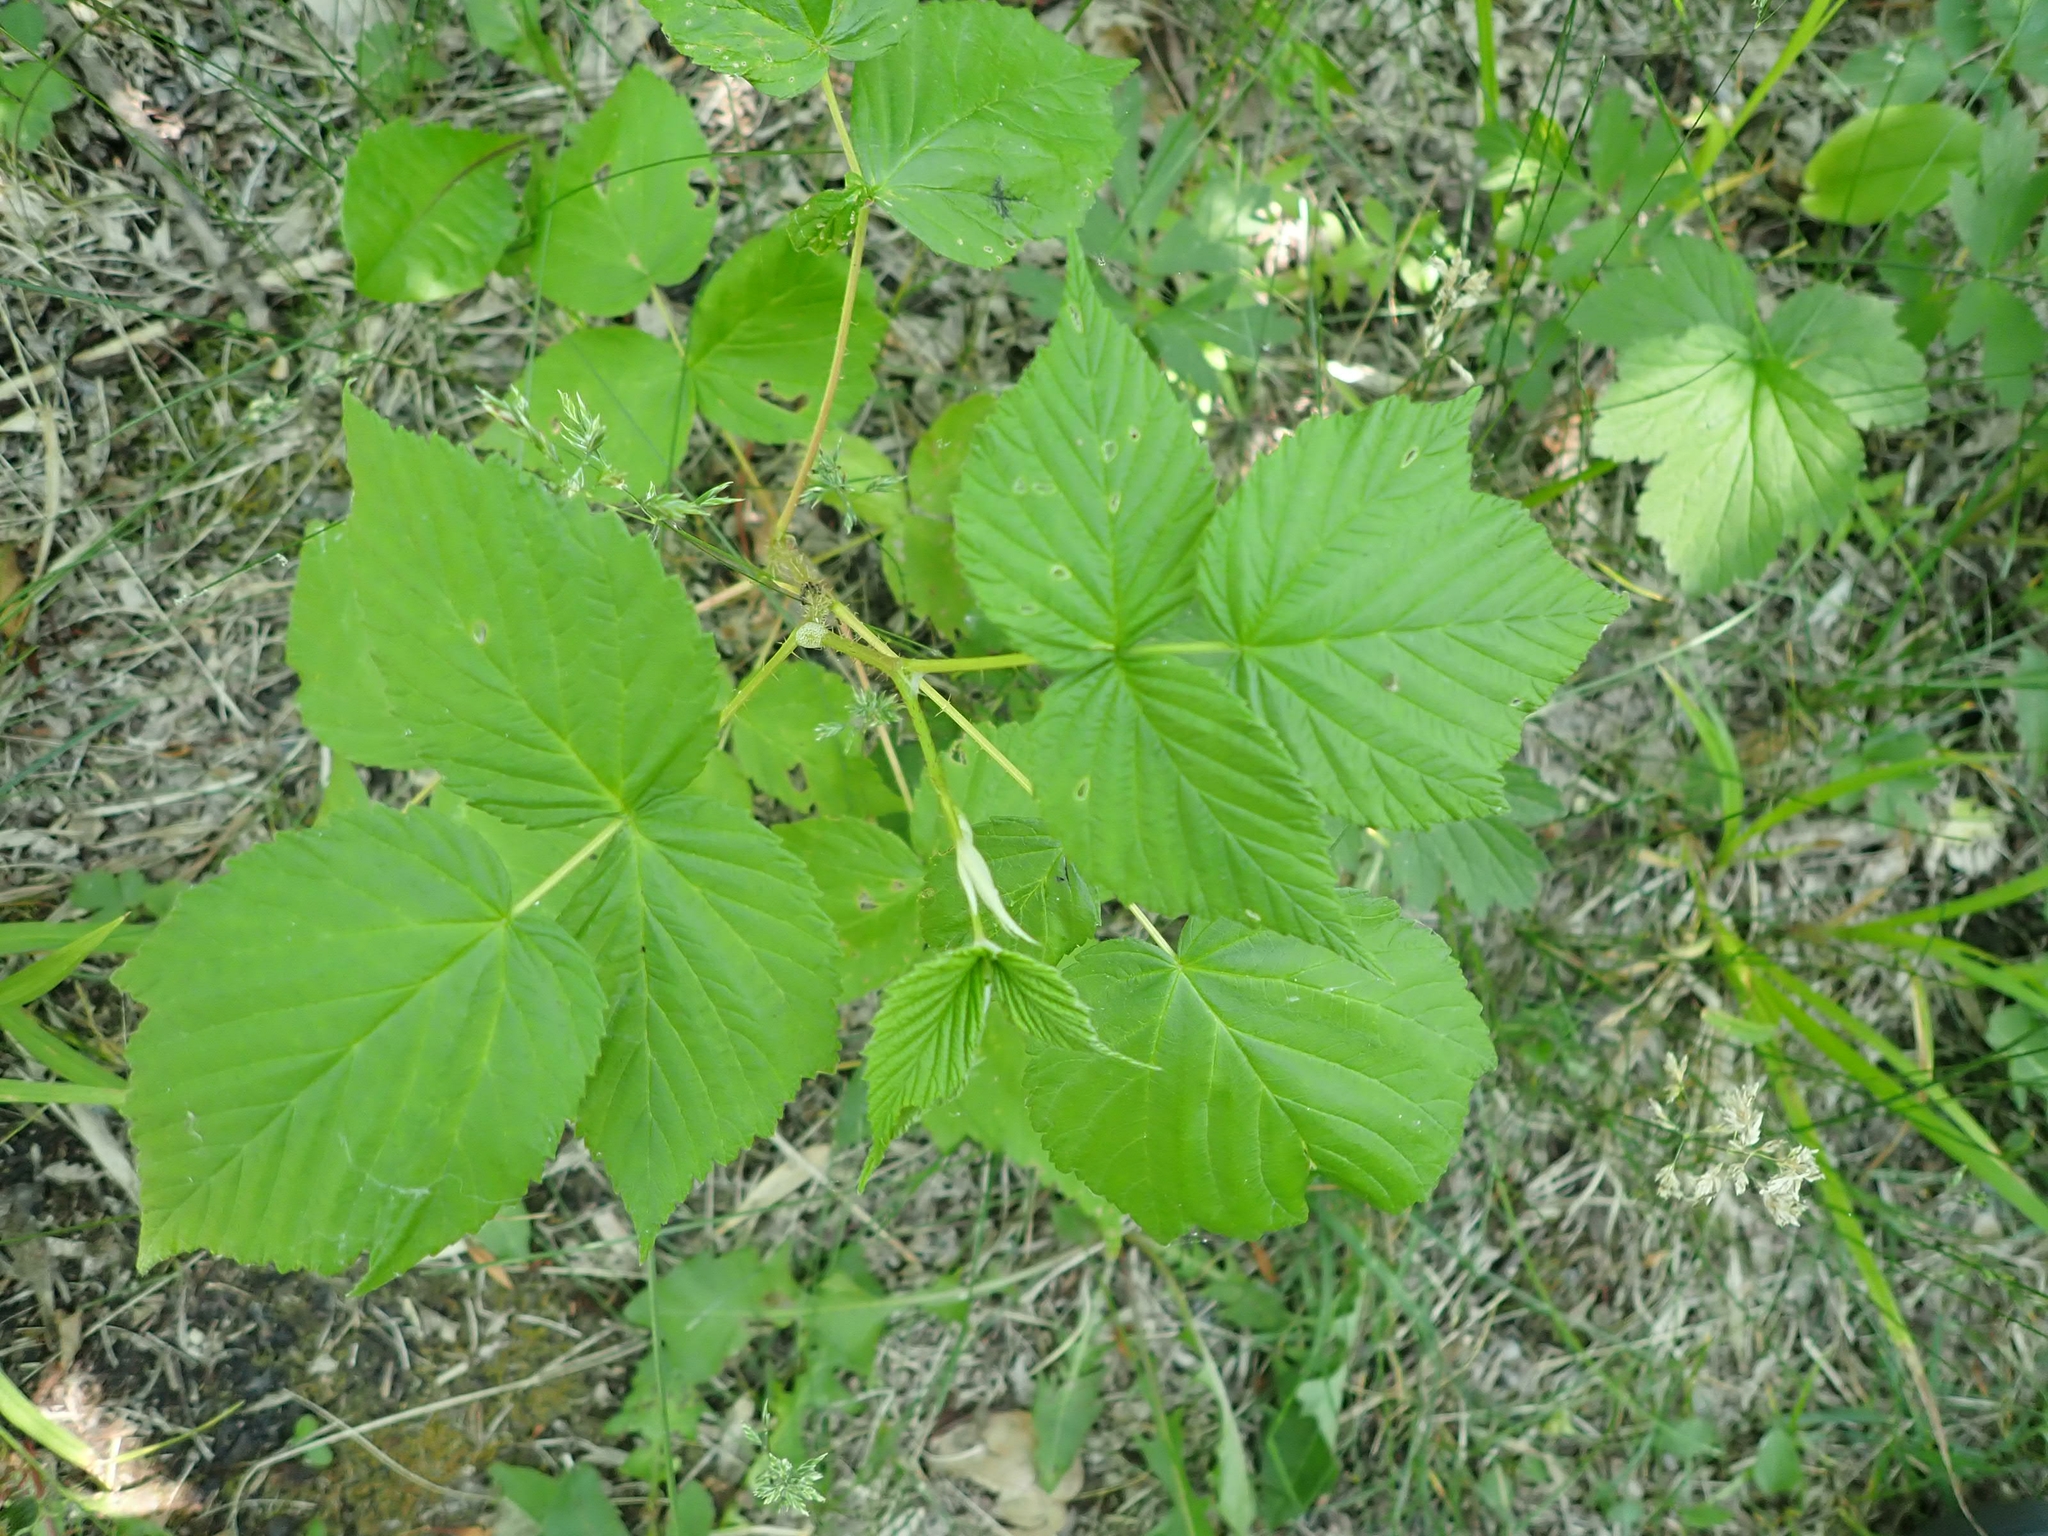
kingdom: Plantae
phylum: Tracheophyta
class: Magnoliopsida
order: Rosales
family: Rosaceae
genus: Rubus
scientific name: Rubus idaeus
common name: Raspberry
